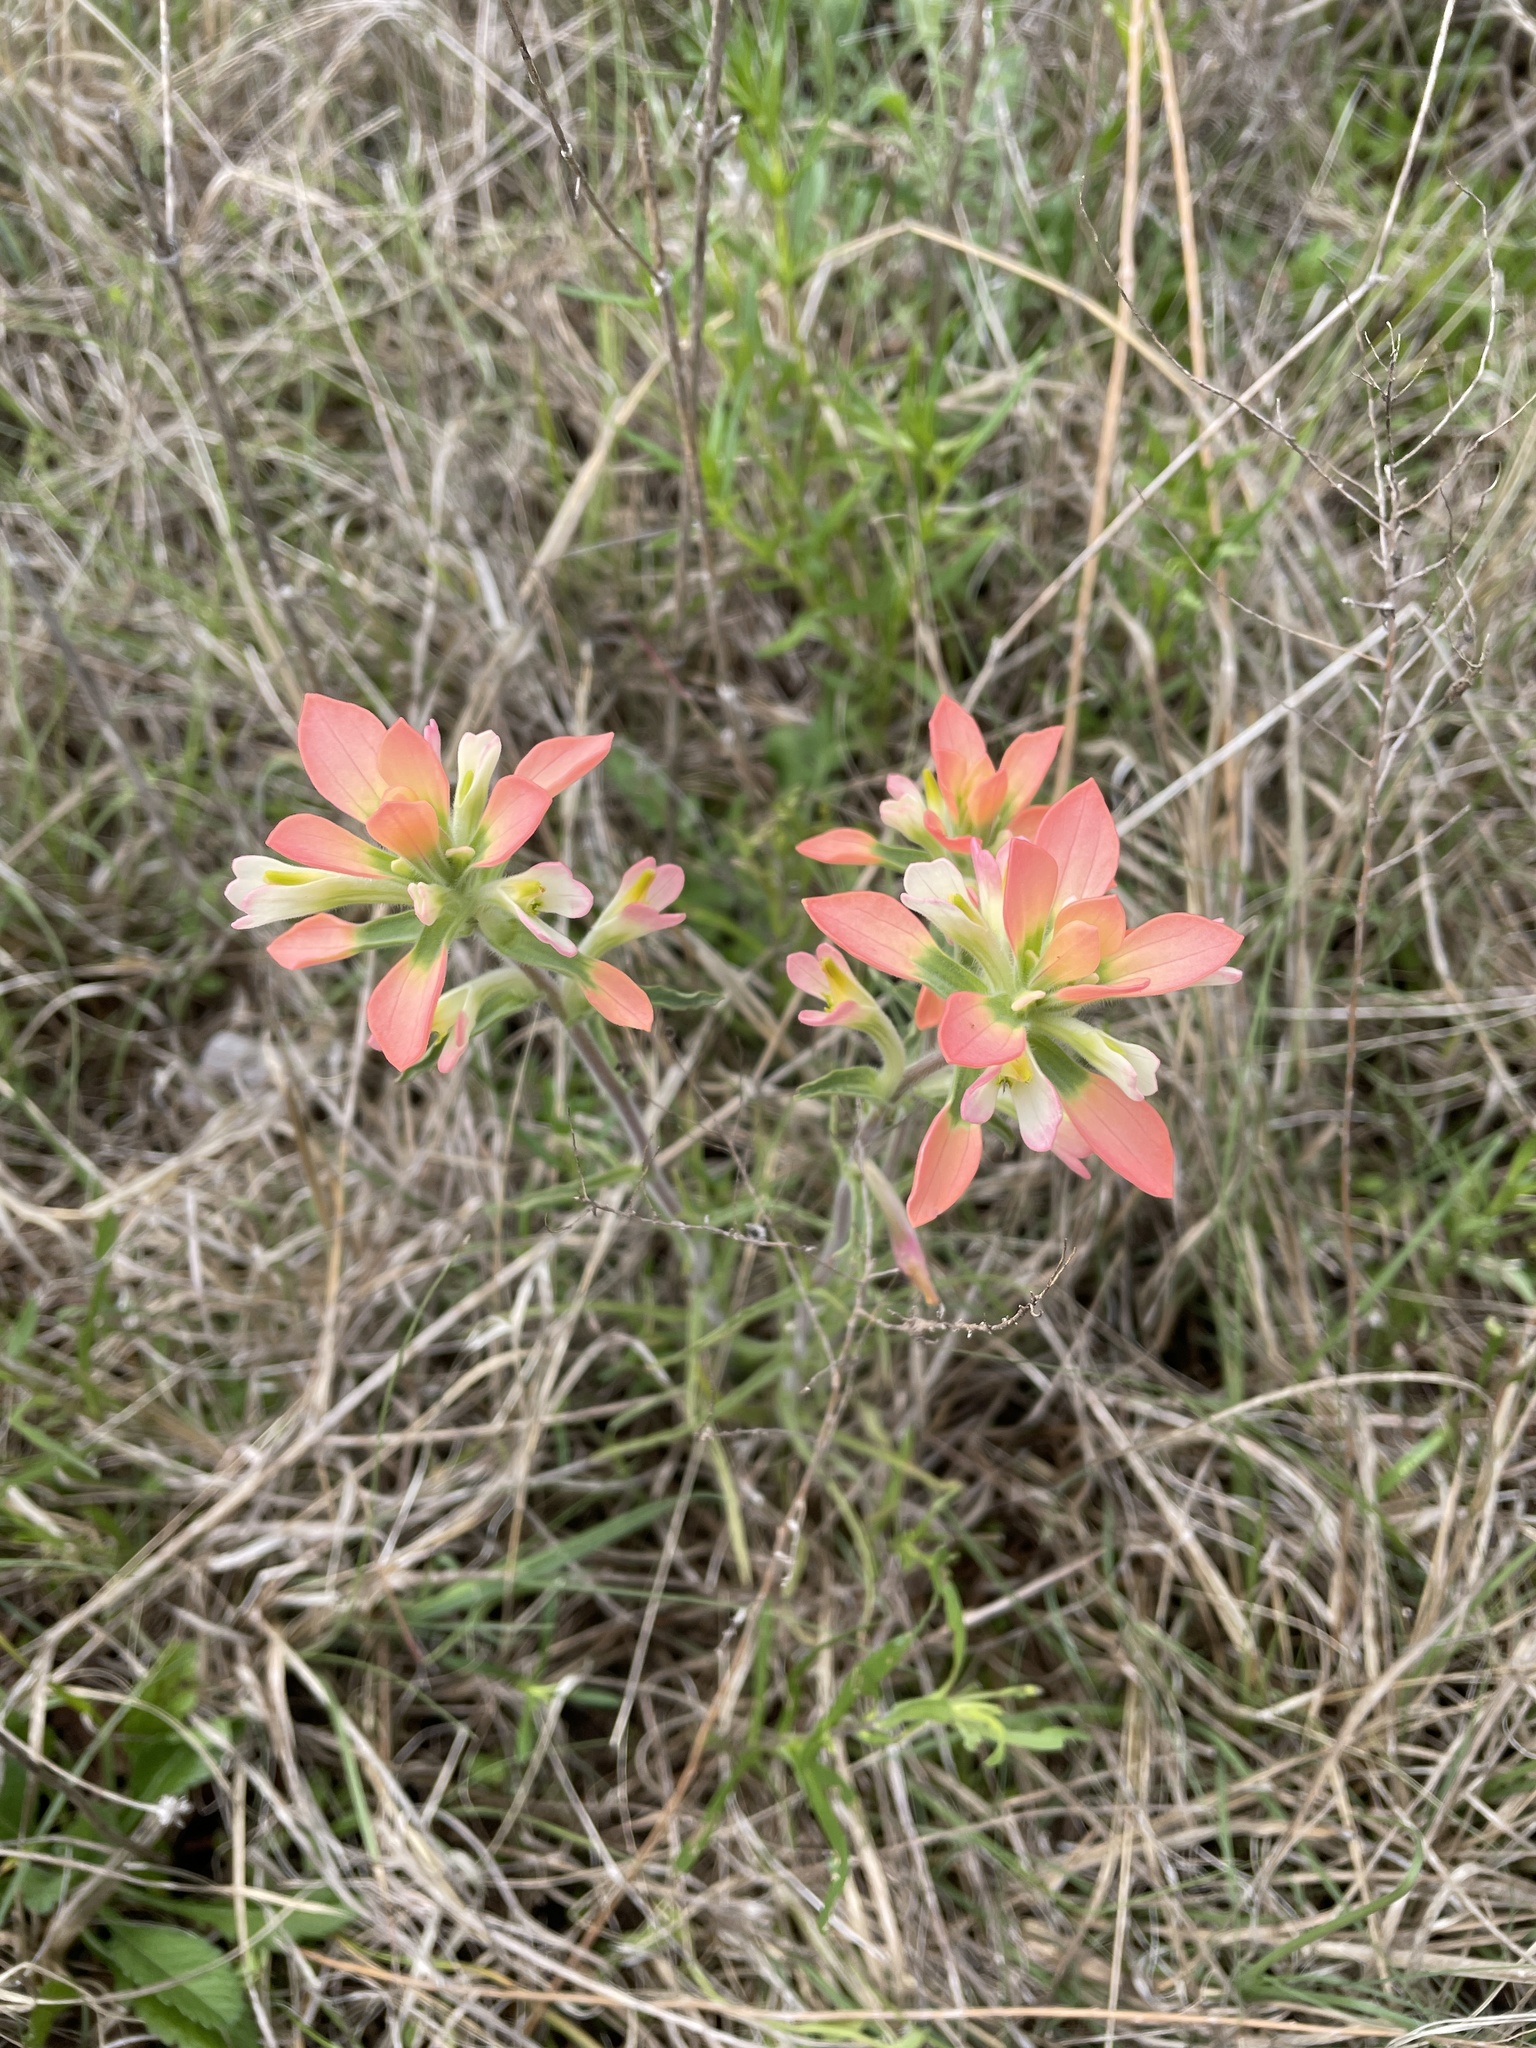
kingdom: Plantae
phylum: Tracheophyta
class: Magnoliopsida
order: Lamiales
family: Orobanchaceae
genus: Castilleja
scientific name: Castilleja indivisa
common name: Texas paintbrush
